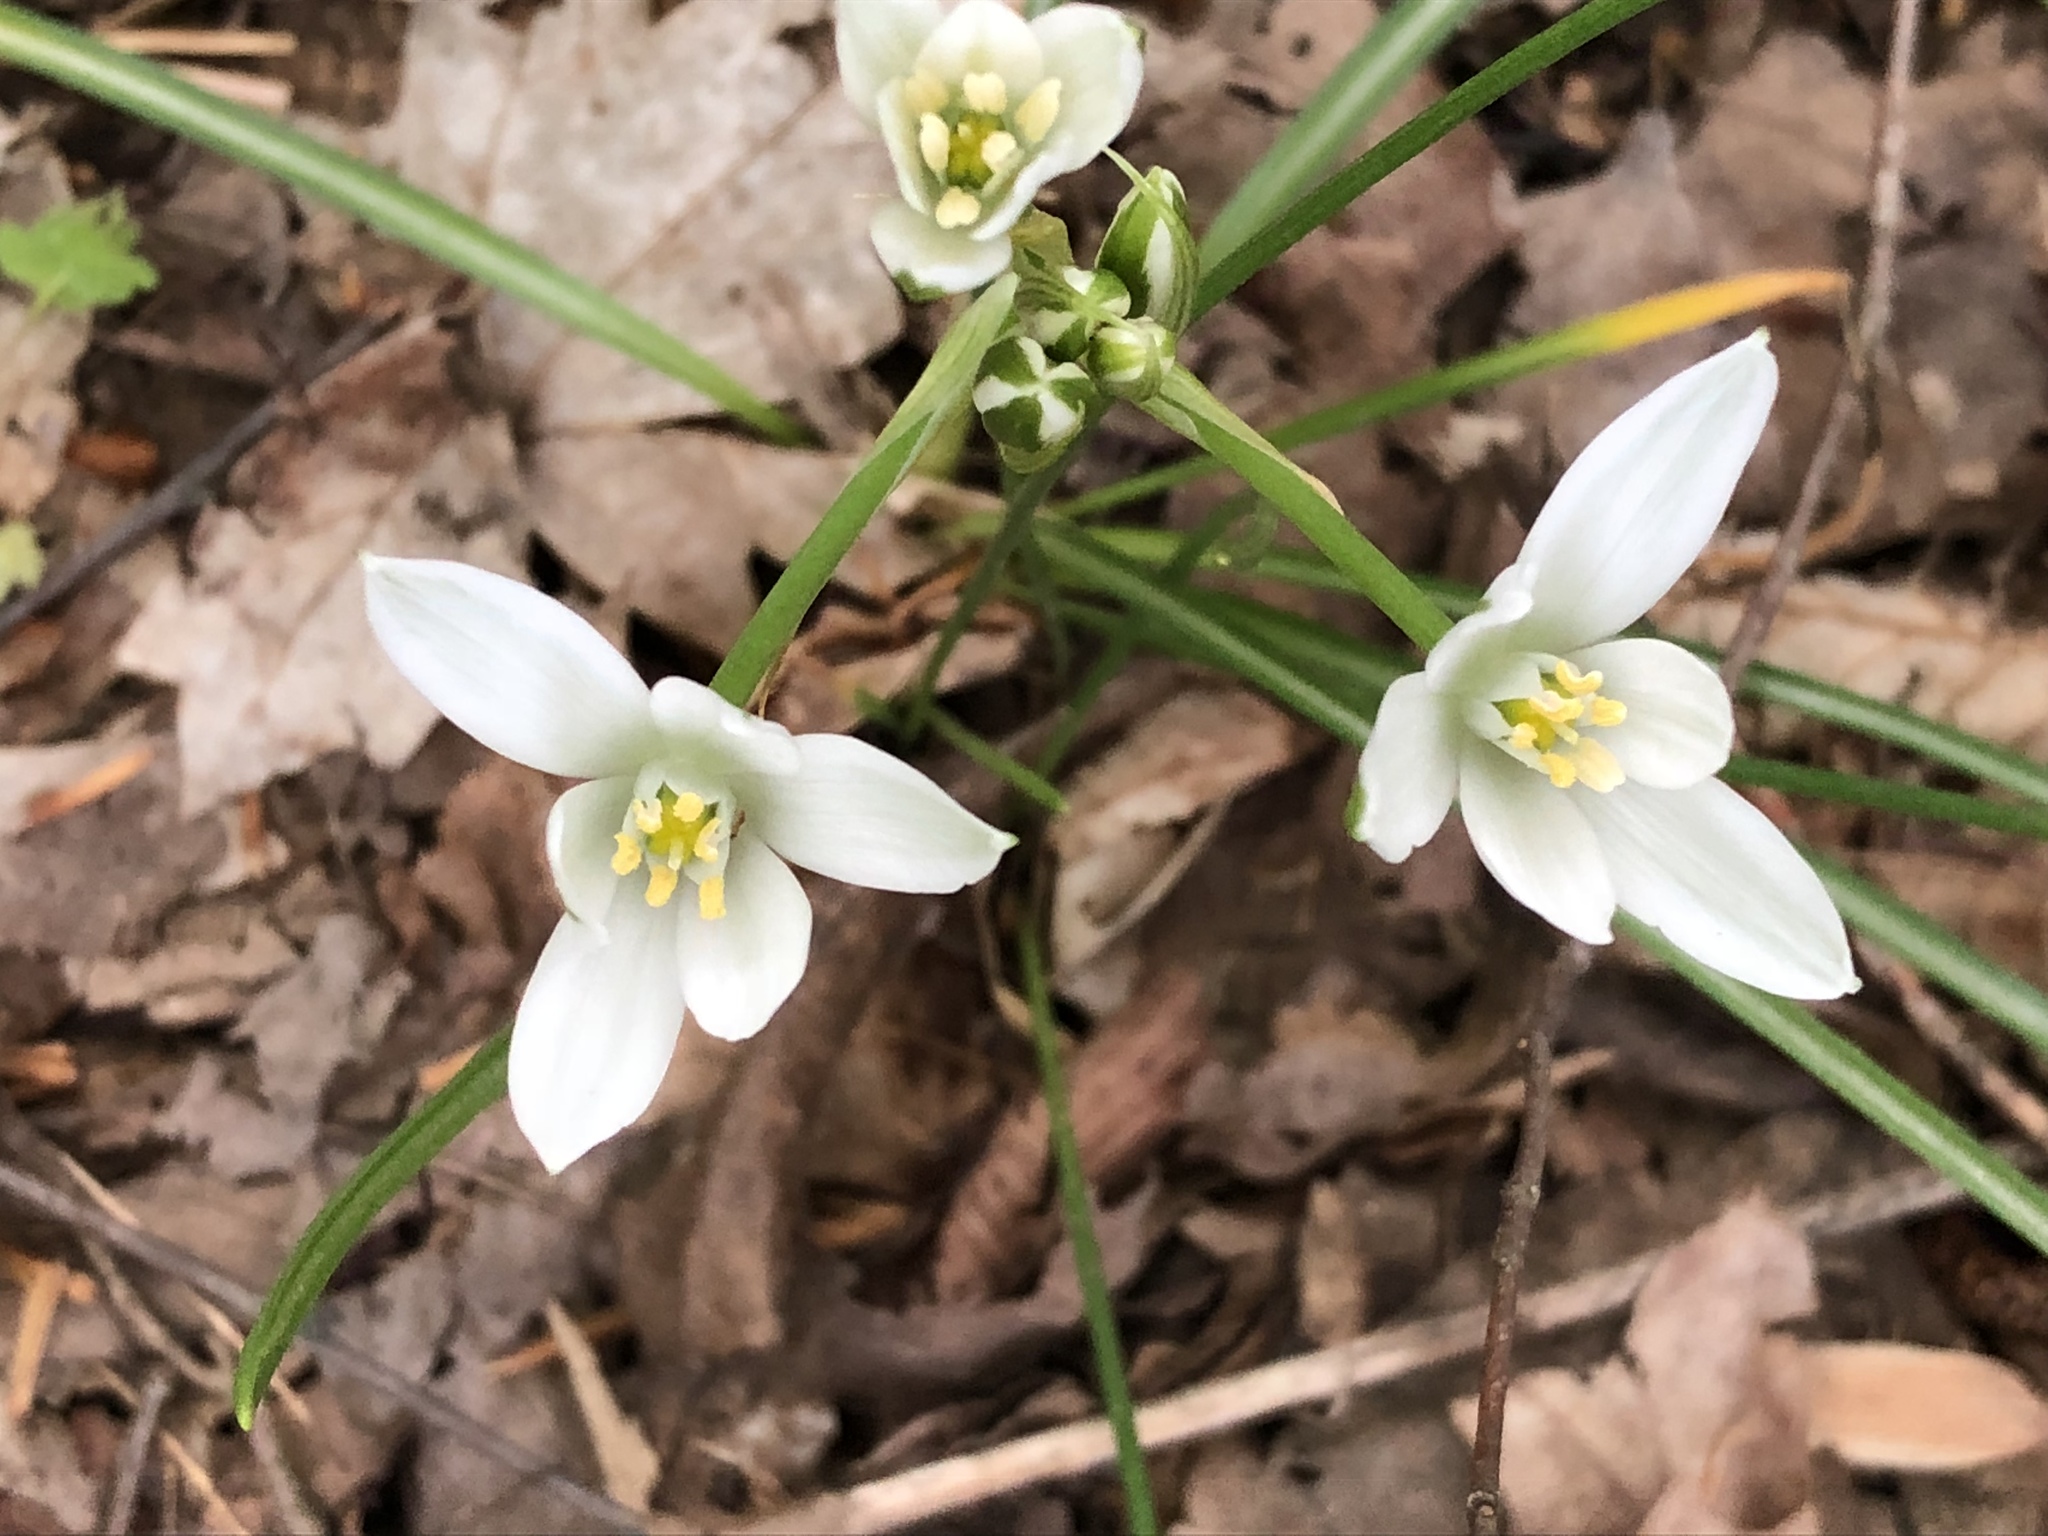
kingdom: Plantae
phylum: Tracheophyta
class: Liliopsida
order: Asparagales
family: Asparagaceae
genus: Ornithogalum
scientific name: Ornithogalum umbellatum
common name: Garden star-of-bethlehem
